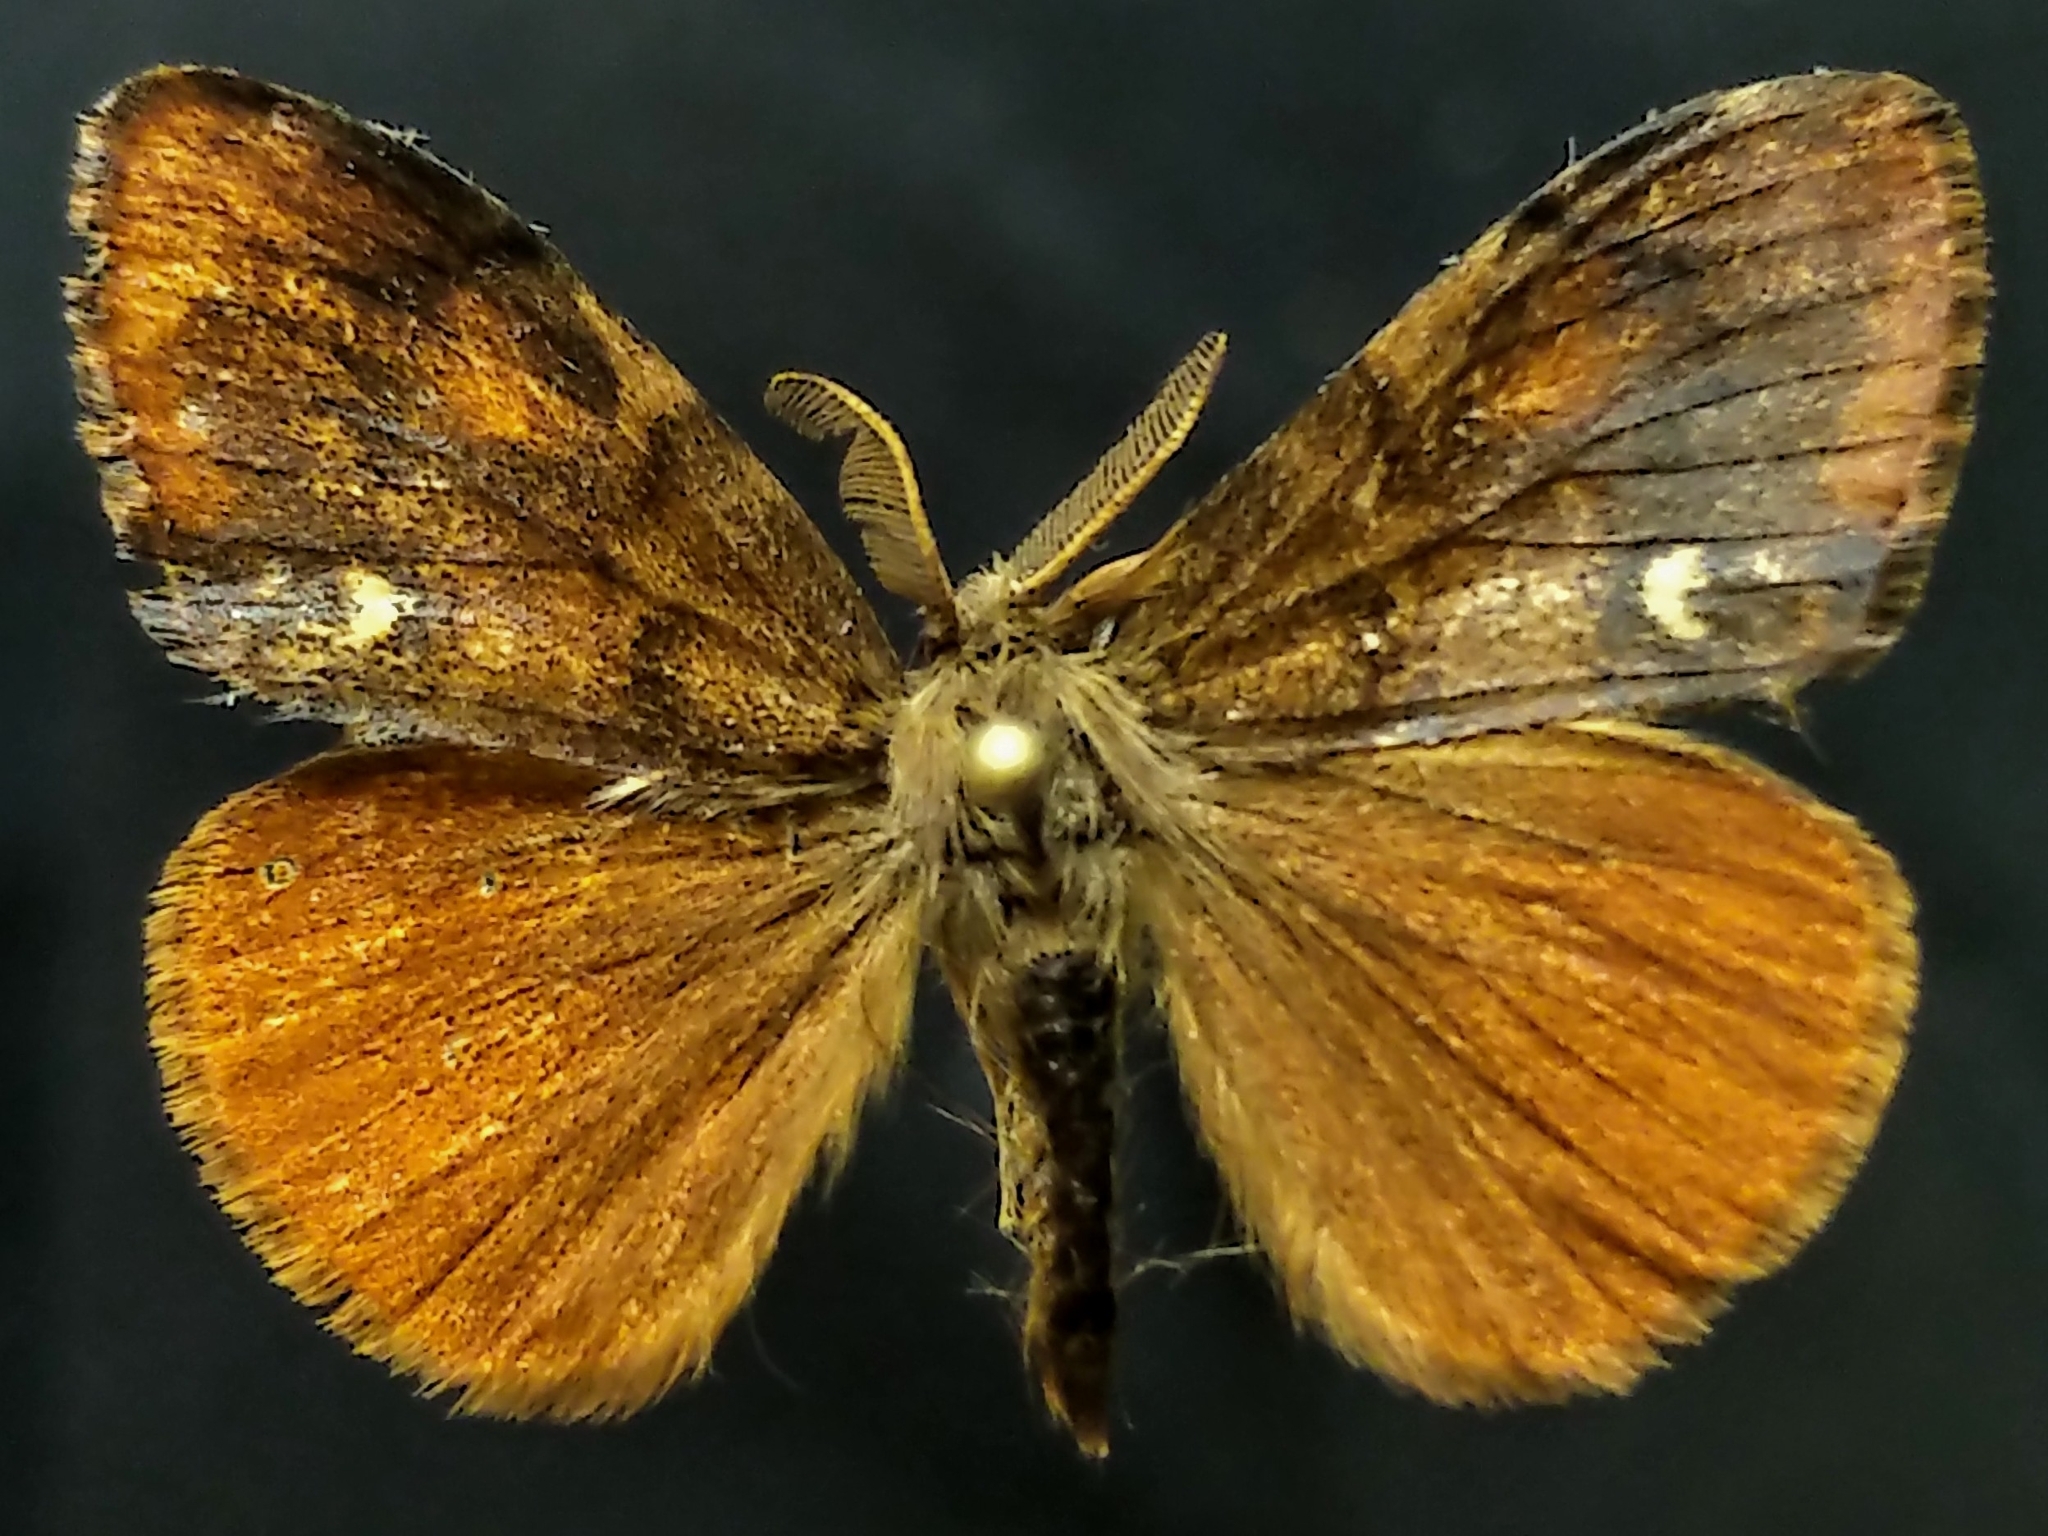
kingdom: Animalia
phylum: Arthropoda
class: Insecta
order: Lepidoptera
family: Erebidae
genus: Orgyia
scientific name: Orgyia antiqua
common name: Vapourer
